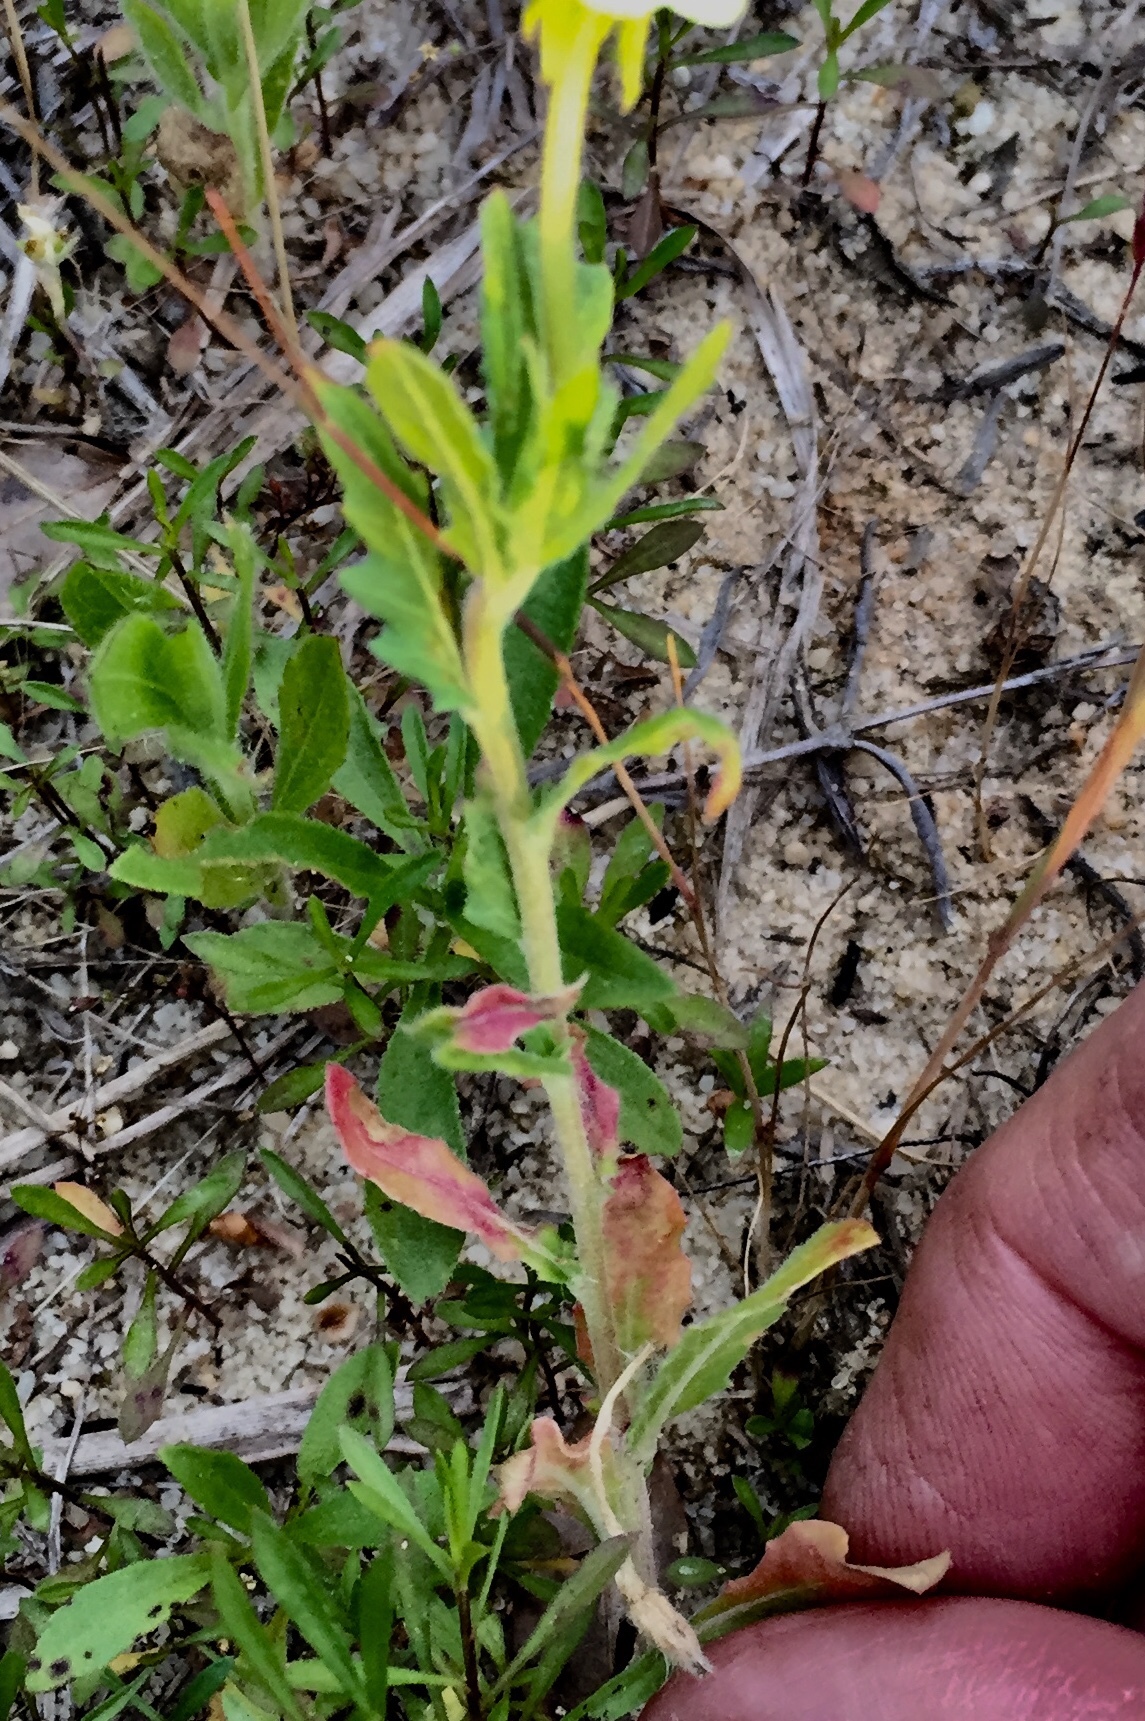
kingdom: Plantae
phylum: Tracheophyta
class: Magnoliopsida
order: Myrtales
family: Onagraceae
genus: Oenothera
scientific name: Oenothera laciniata
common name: Cut-leaved evening-primrose
